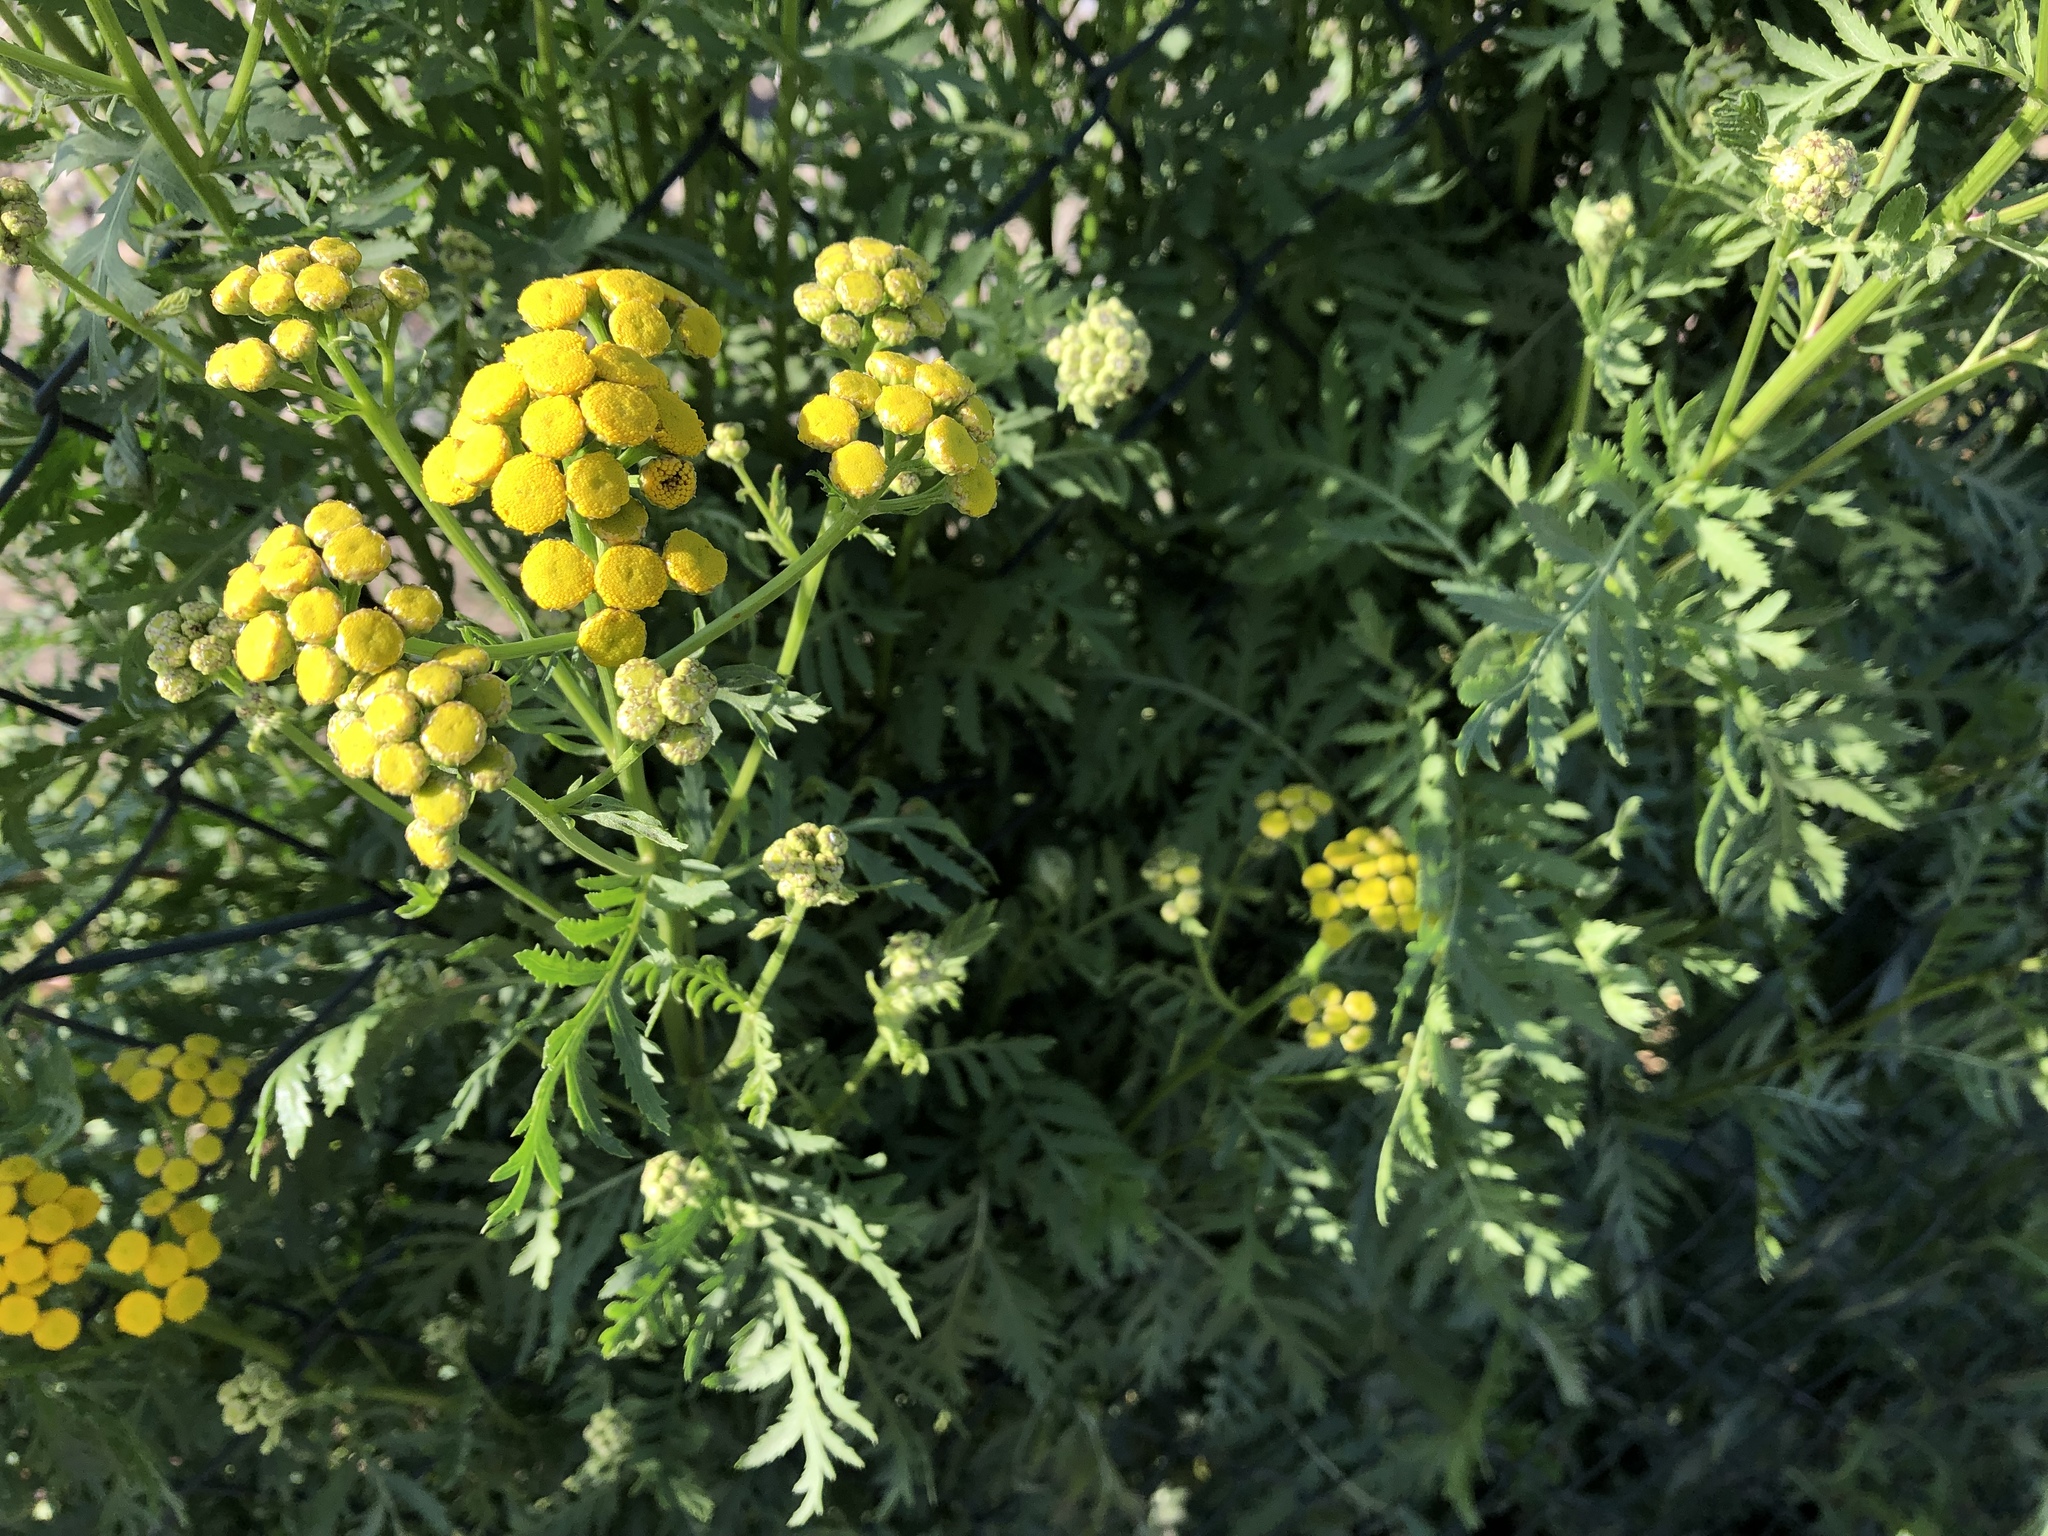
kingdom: Plantae
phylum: Tracheophyta
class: Magnoliopsida
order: Asterales
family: Asteraceae
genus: Tanacetum
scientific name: Tanacetum vulgare
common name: Common tansy
